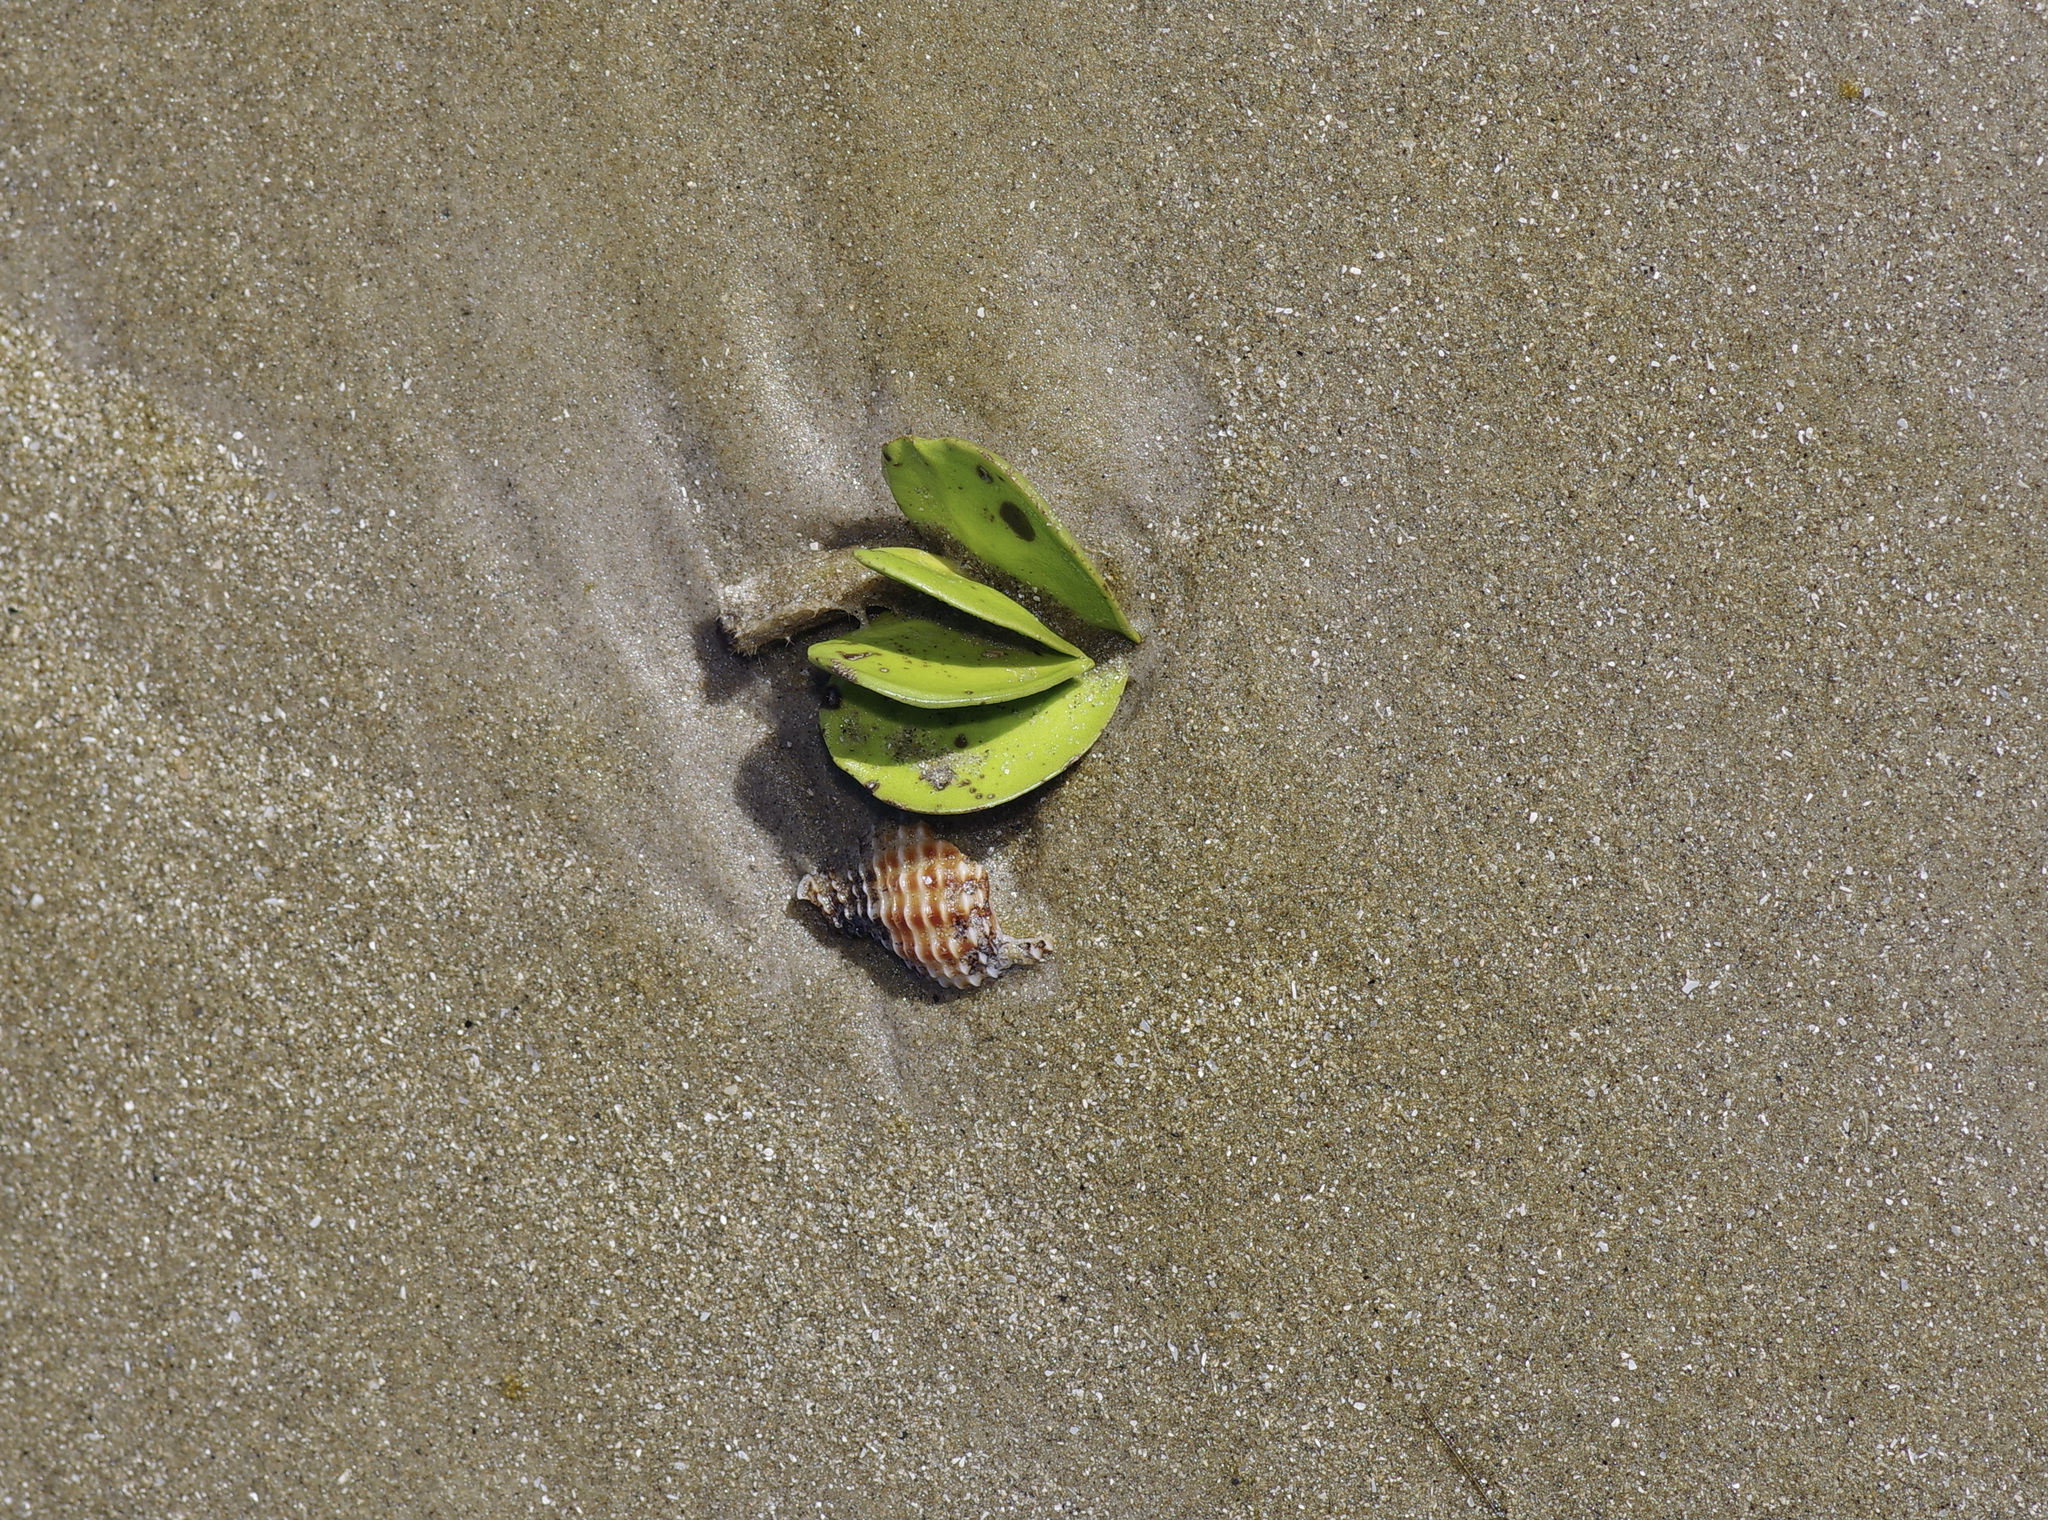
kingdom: Plantae
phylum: Tracheophyta
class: Magnoliopsida
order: Lamiales
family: Acanthaceae
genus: Avicennia
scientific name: Avicennia germinans
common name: Black mangrove
